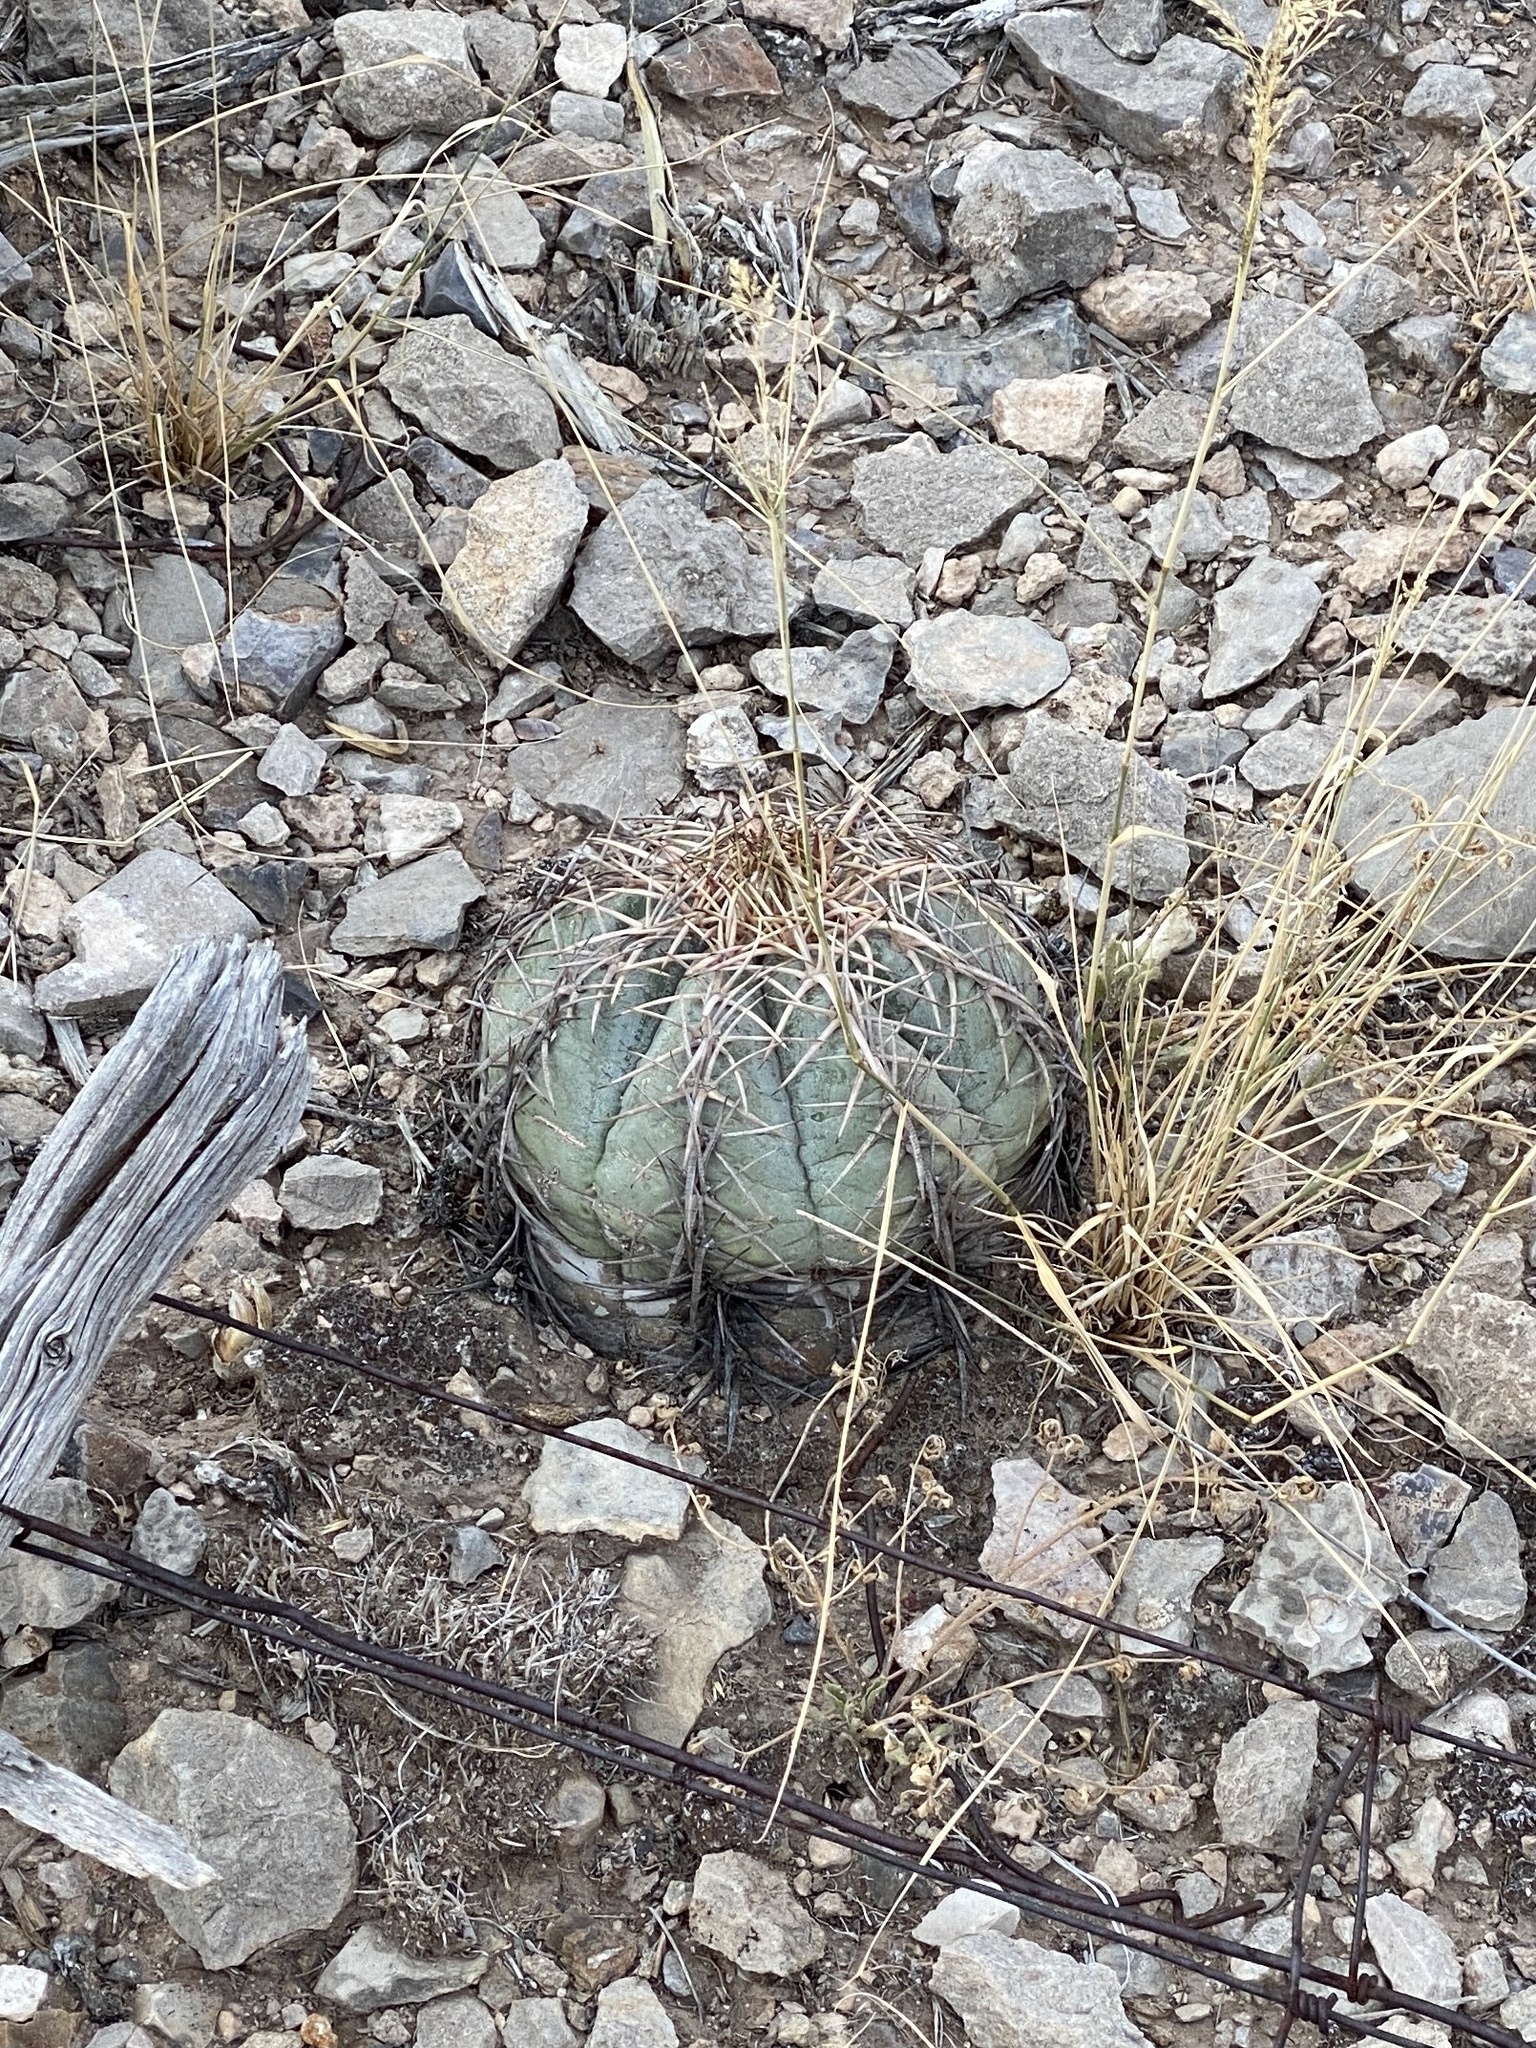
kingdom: Plantae
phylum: Tracheophyta
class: Magnoliopsida
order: Caryophyllales
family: Cactaceae
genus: Echinocactus
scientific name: Echinocactus horizonthalonius
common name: Devilshead
